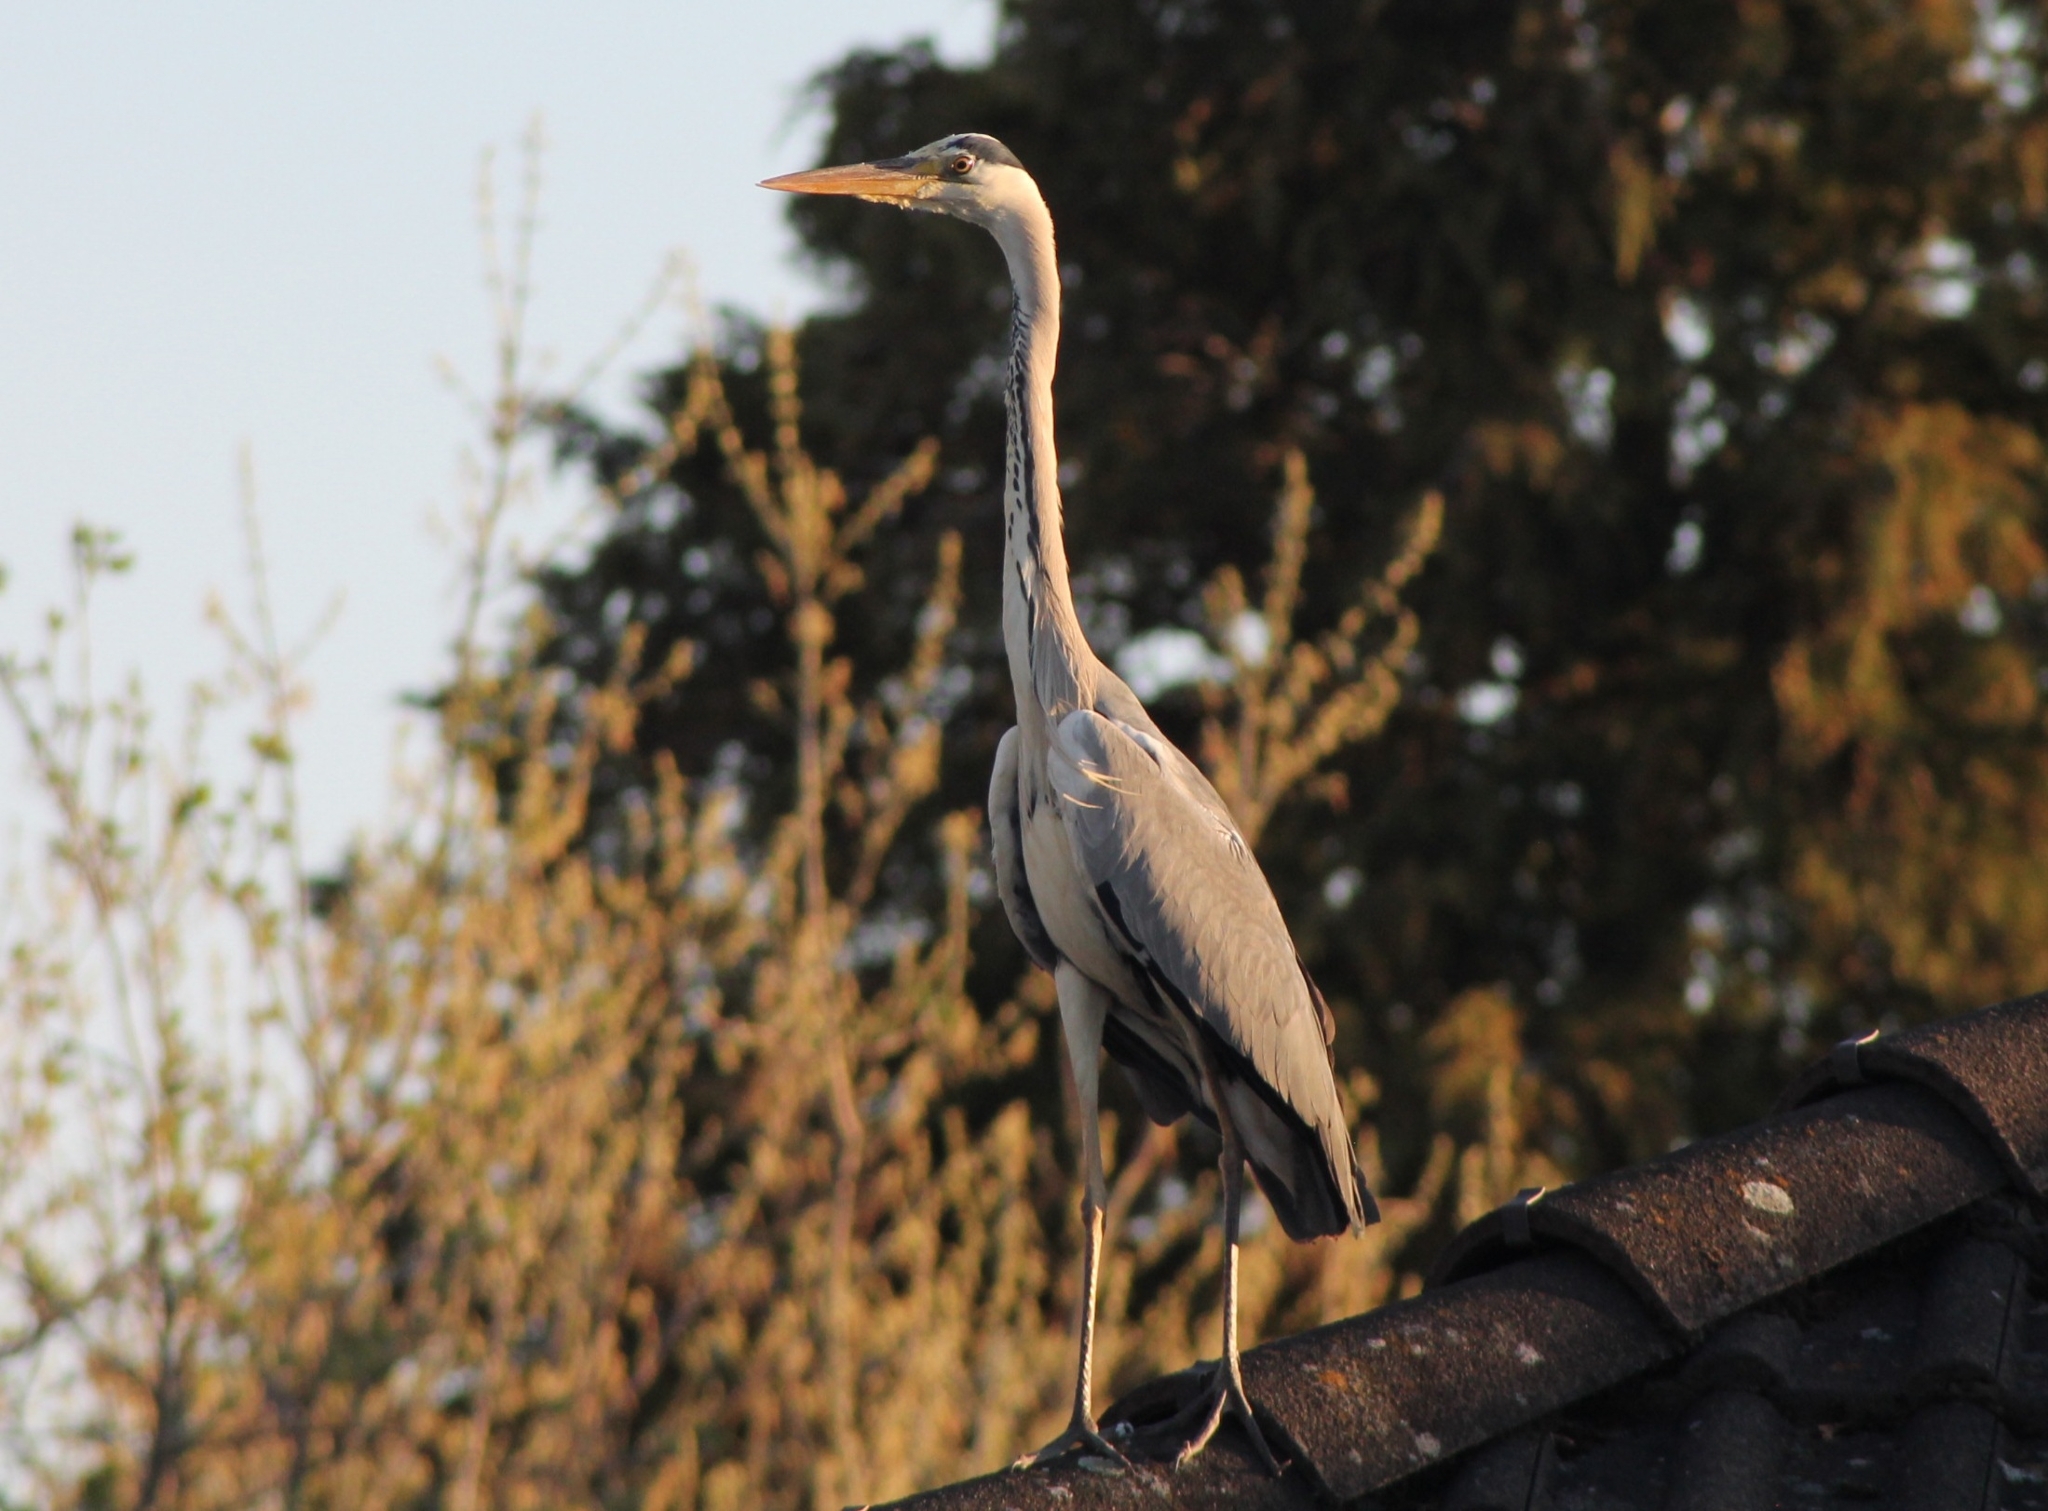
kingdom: Animalia
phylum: Chordata
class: Aves
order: Pelecaniformes
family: Ardeidae
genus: Ardea
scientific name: Ardea cinerea
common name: Grey heron
